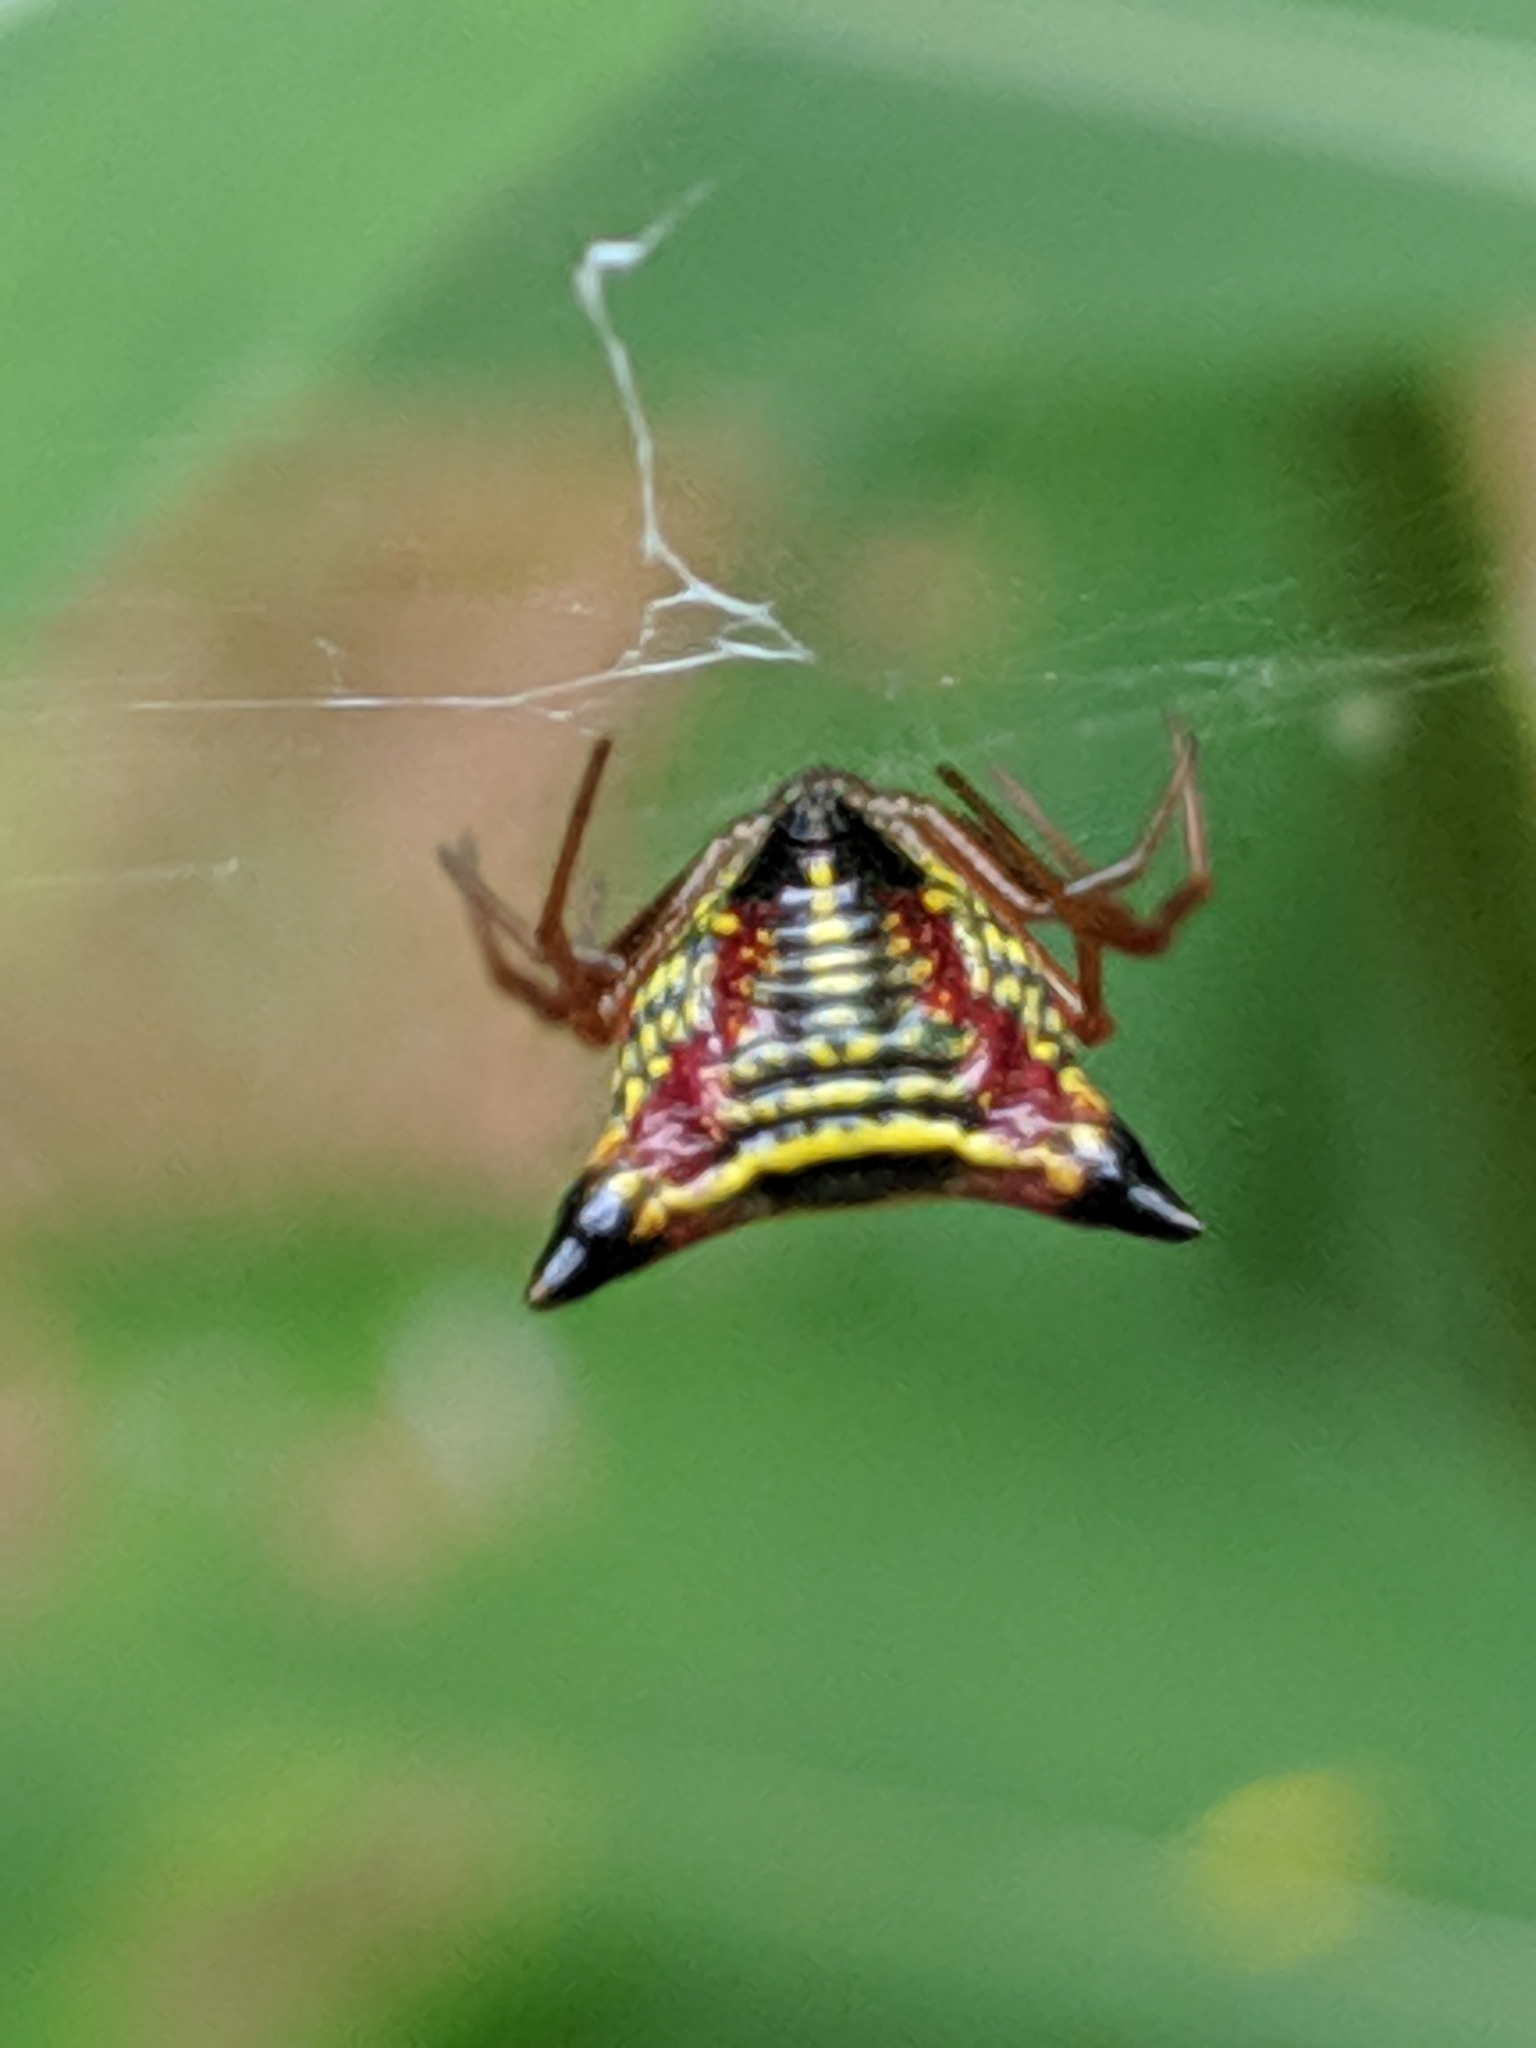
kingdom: Animalia
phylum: Arthropoda
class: Arachnida
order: Araneae
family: Araneidae
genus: Micrathena
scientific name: Micrathena sagittata
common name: Orb weavers
